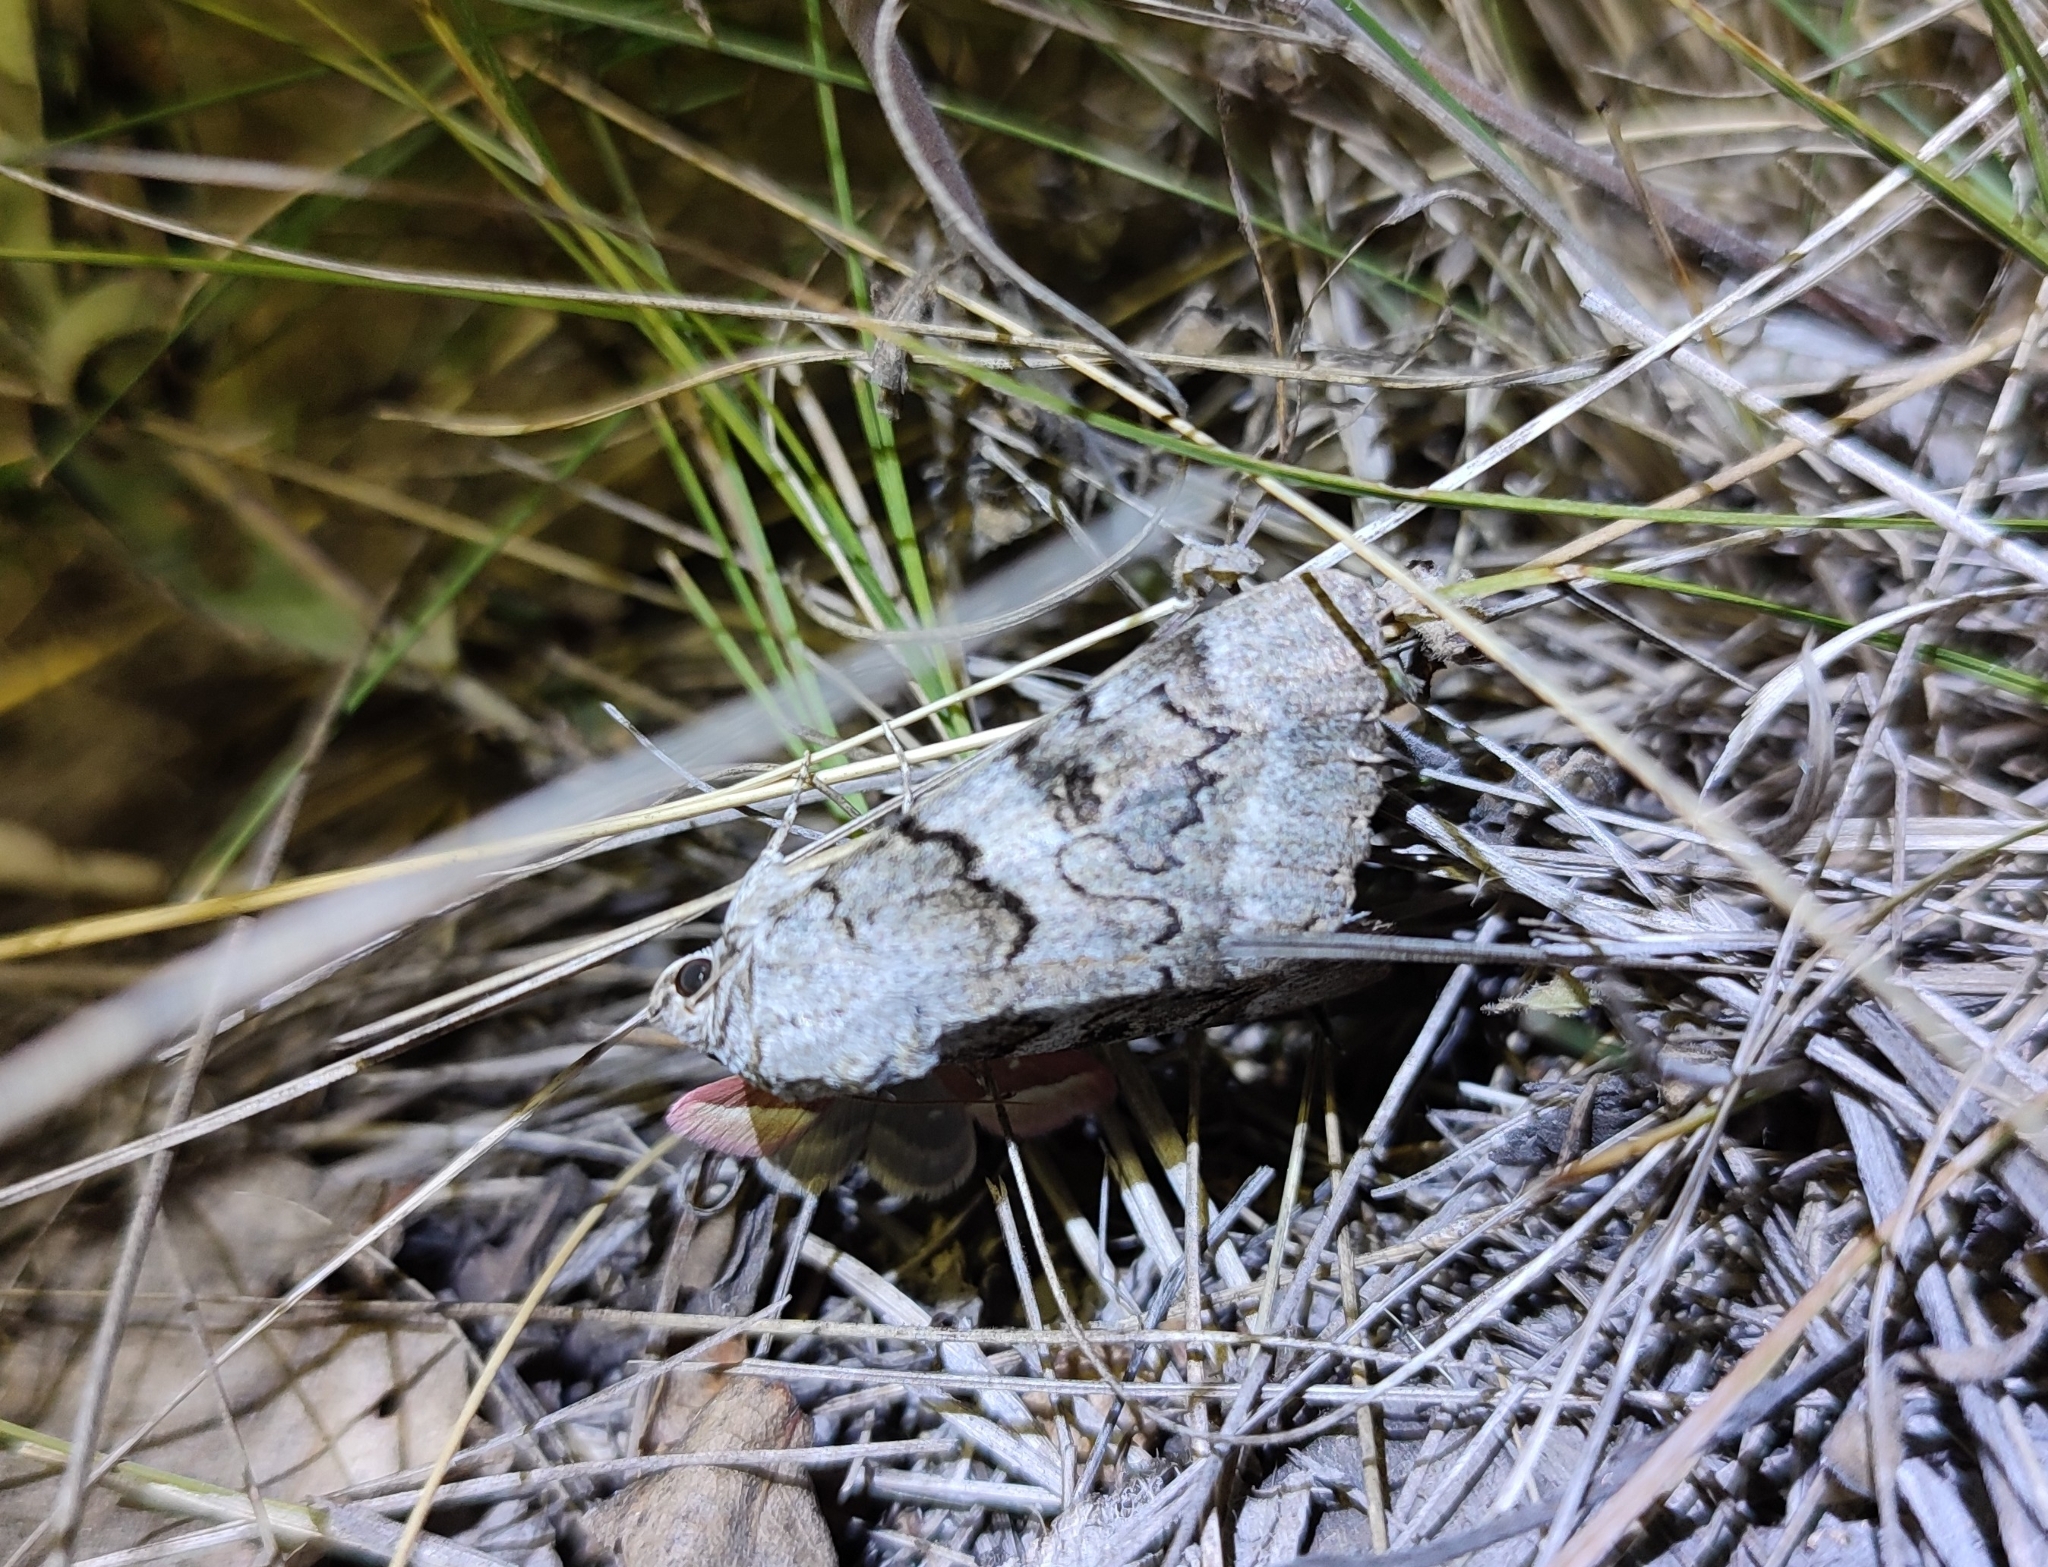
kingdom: Animalia
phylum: Arthropoda
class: Insecta
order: Lepidoptera
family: Erebidae
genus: Catocala
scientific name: Catocala neonympha
